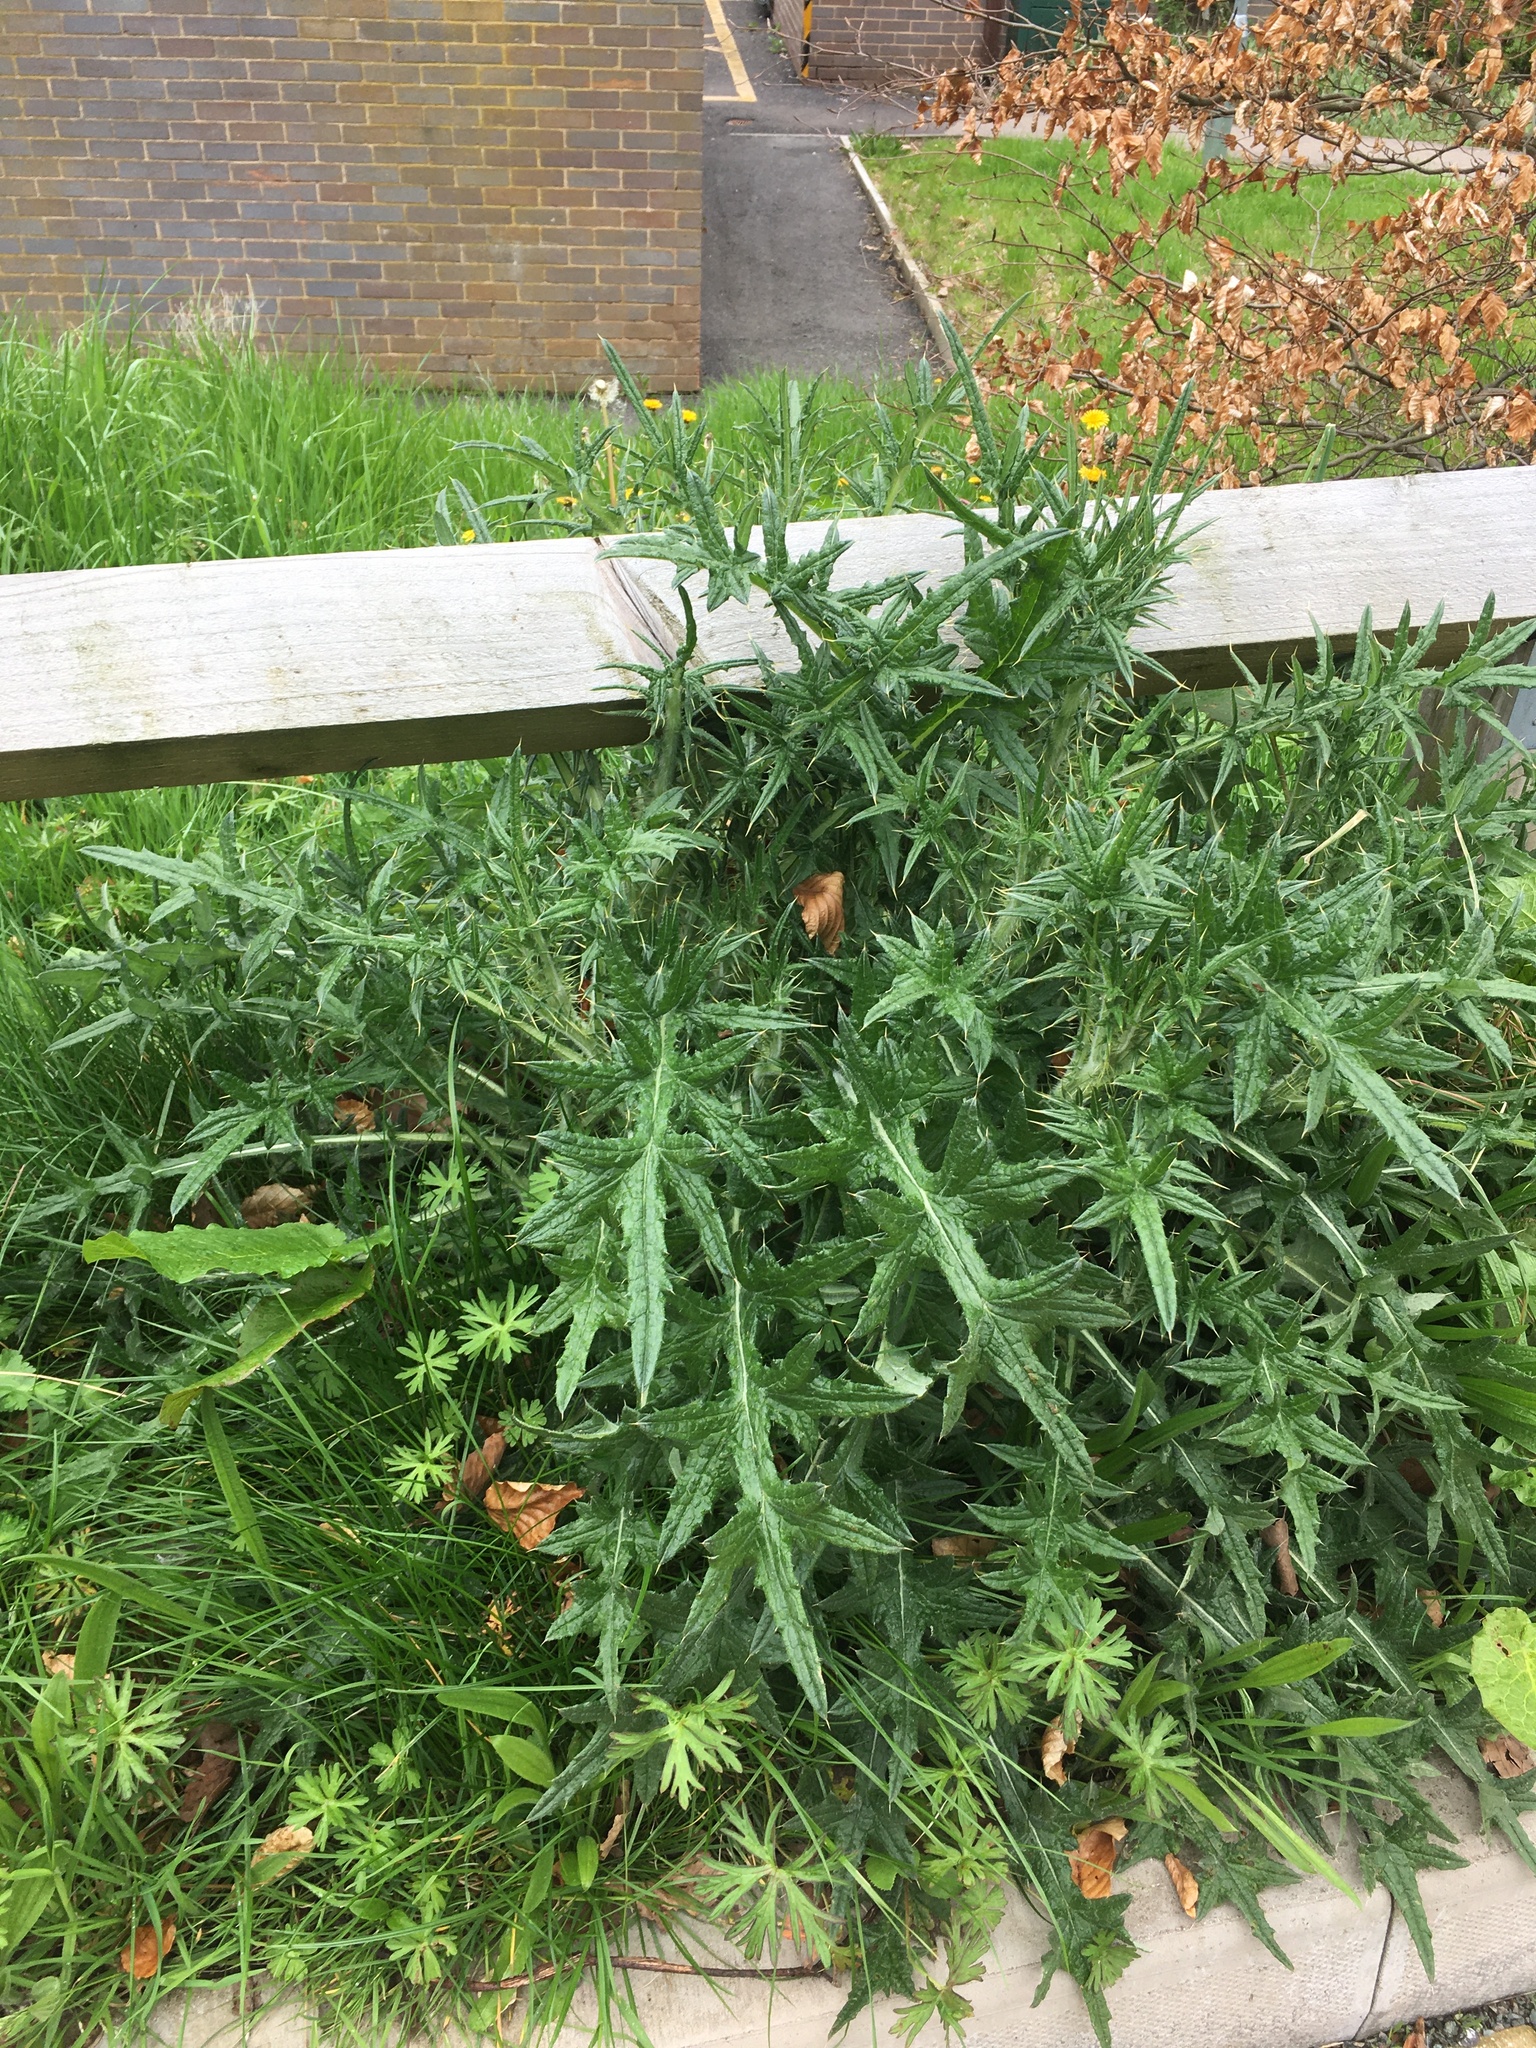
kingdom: Plantae
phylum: Tracheophyta
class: Magnoliopsida
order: Asterales
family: Asteraceae
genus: Cirsium
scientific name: Cirsium vulgare
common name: Bull thistle
